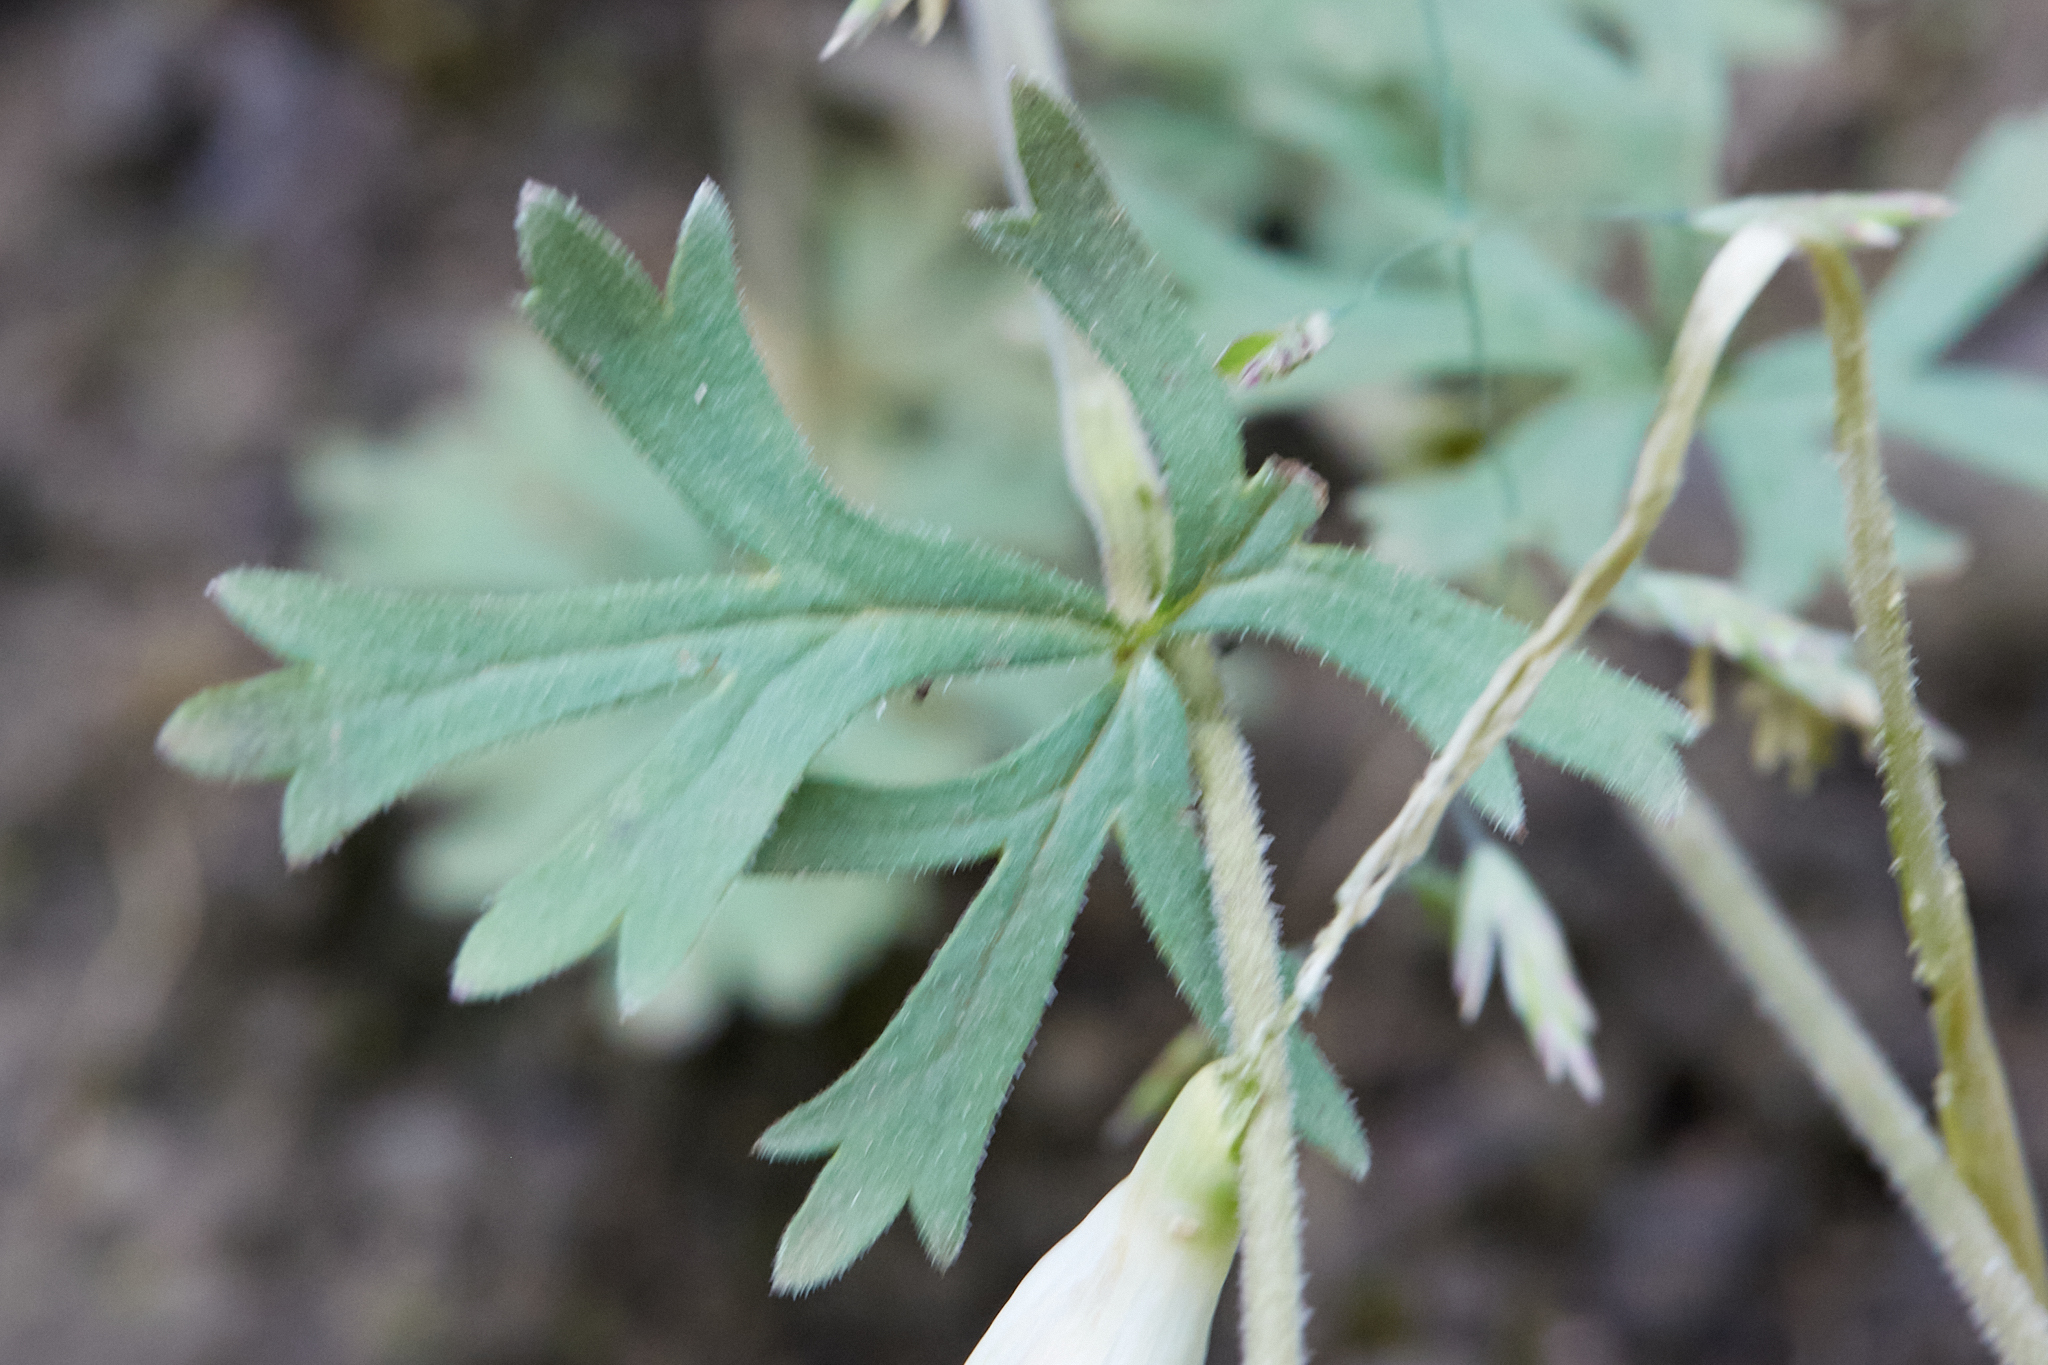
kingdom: Plantae
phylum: Tracheophyta
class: Magnoliopsida
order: Saxifragales
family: Saxifragaceae
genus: Lithophragma
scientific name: Lithophragma parviflorum
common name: Small-flowered fringe-cup
